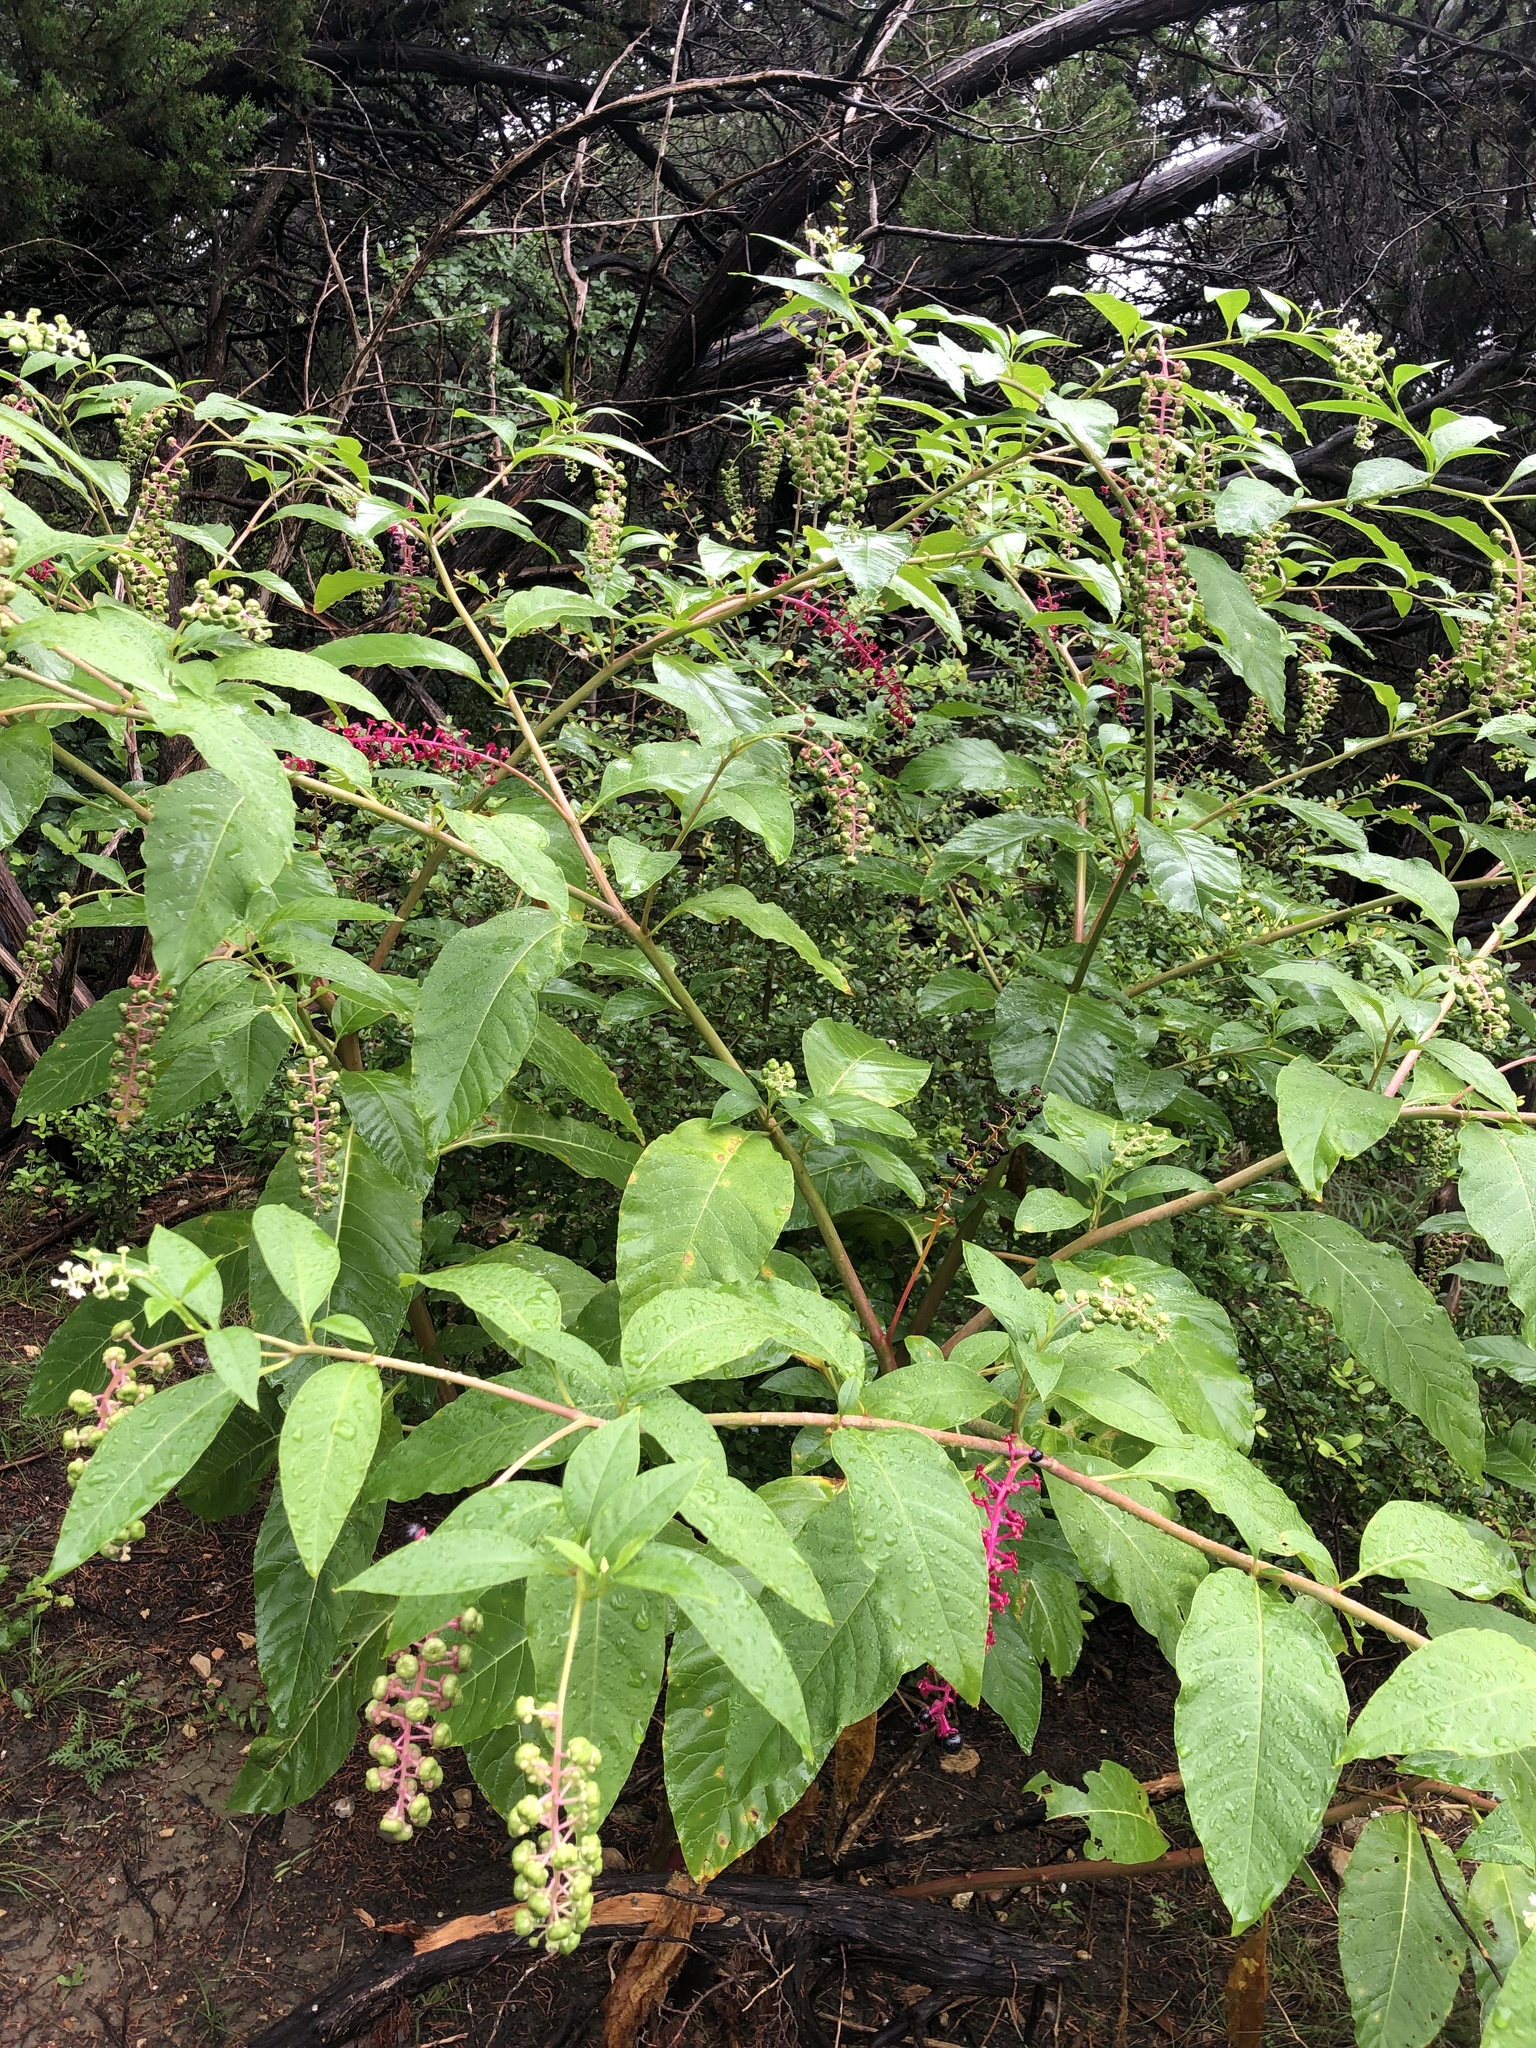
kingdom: Plantae
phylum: Tracheophyta
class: Magnoliopsida
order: Caryophyllales
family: Phytolaccaceae
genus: Phytolacca
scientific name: Phytolacca americana
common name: American pokeweed
